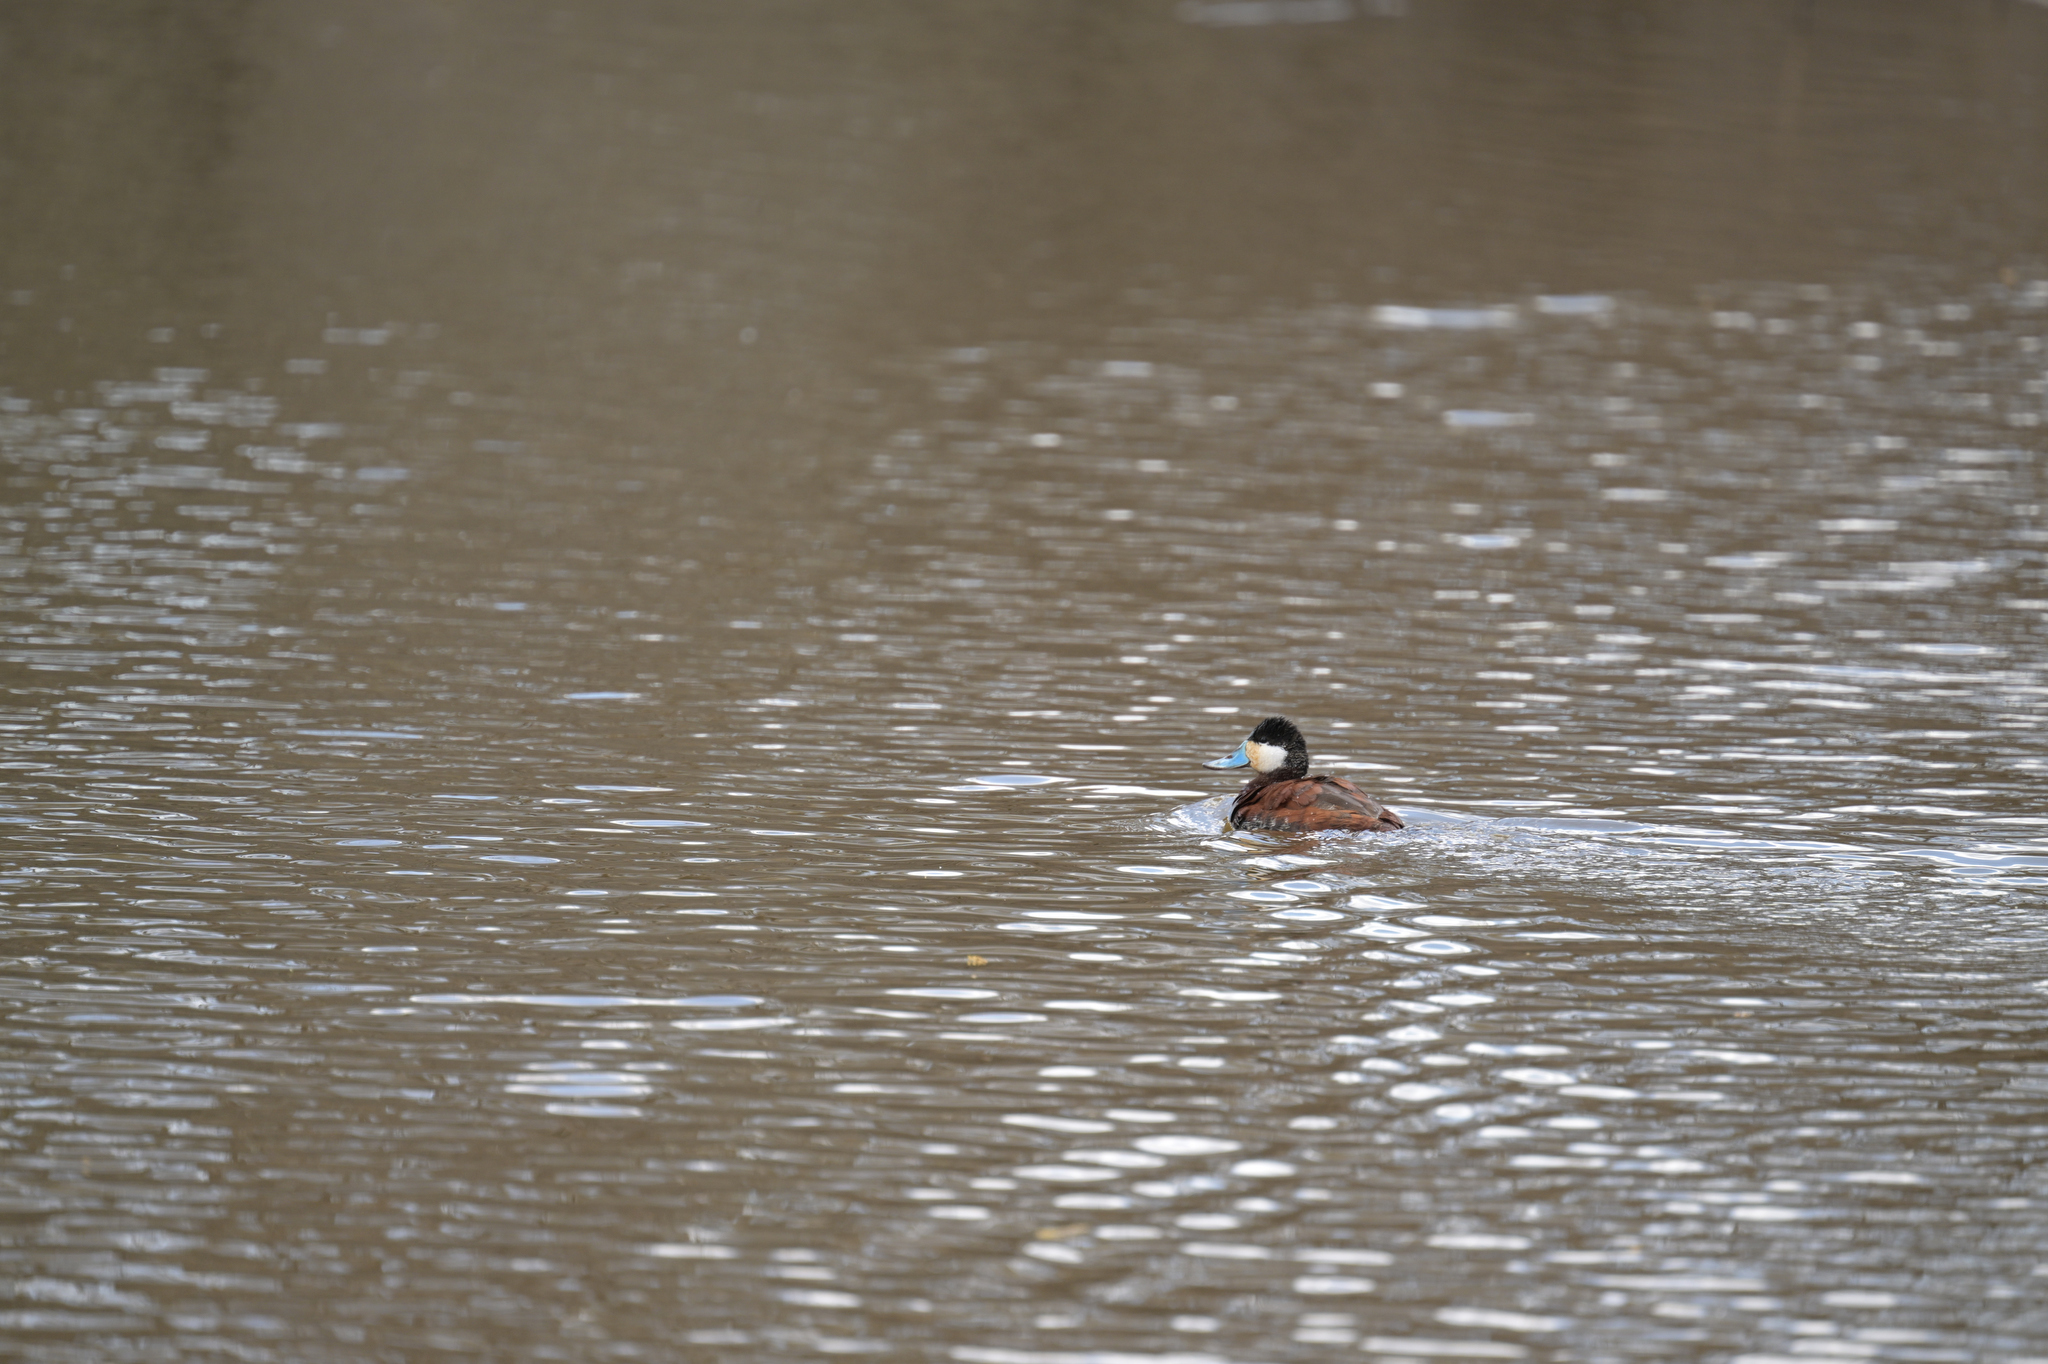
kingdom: Animalia
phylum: Chordata
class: Aves
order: Anseriformes
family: Anatidae
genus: Oxyura
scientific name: Oxyura jamaicensis
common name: Ruddy duck
